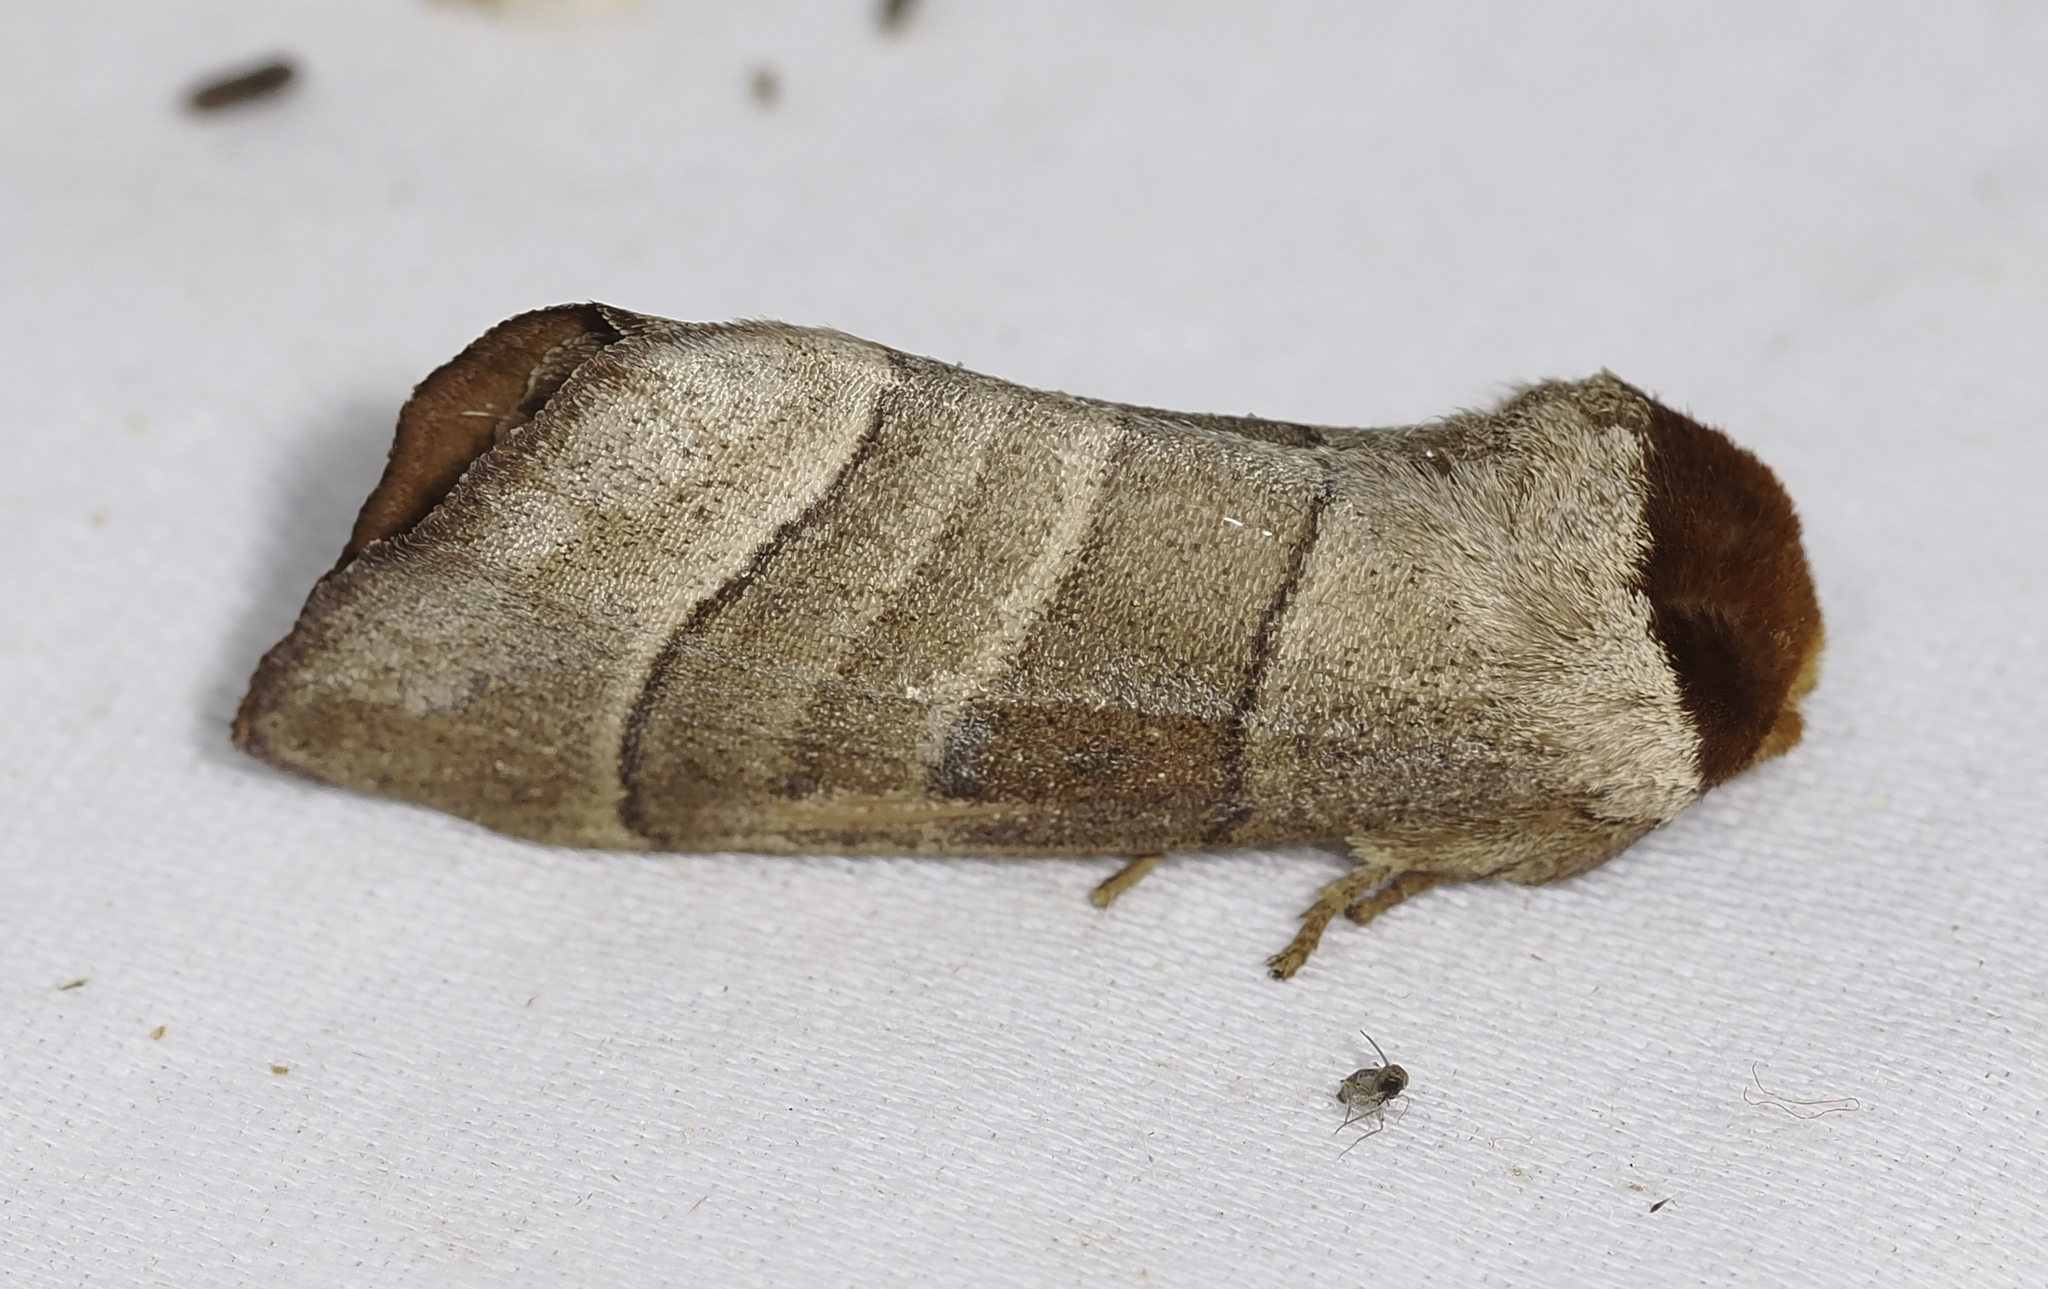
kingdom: Animalia
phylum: Arthropoda
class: Insecta
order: Lepidoptera
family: Notodontidae
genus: Datana
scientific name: Datana integerrima
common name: Walnut caterpillar
